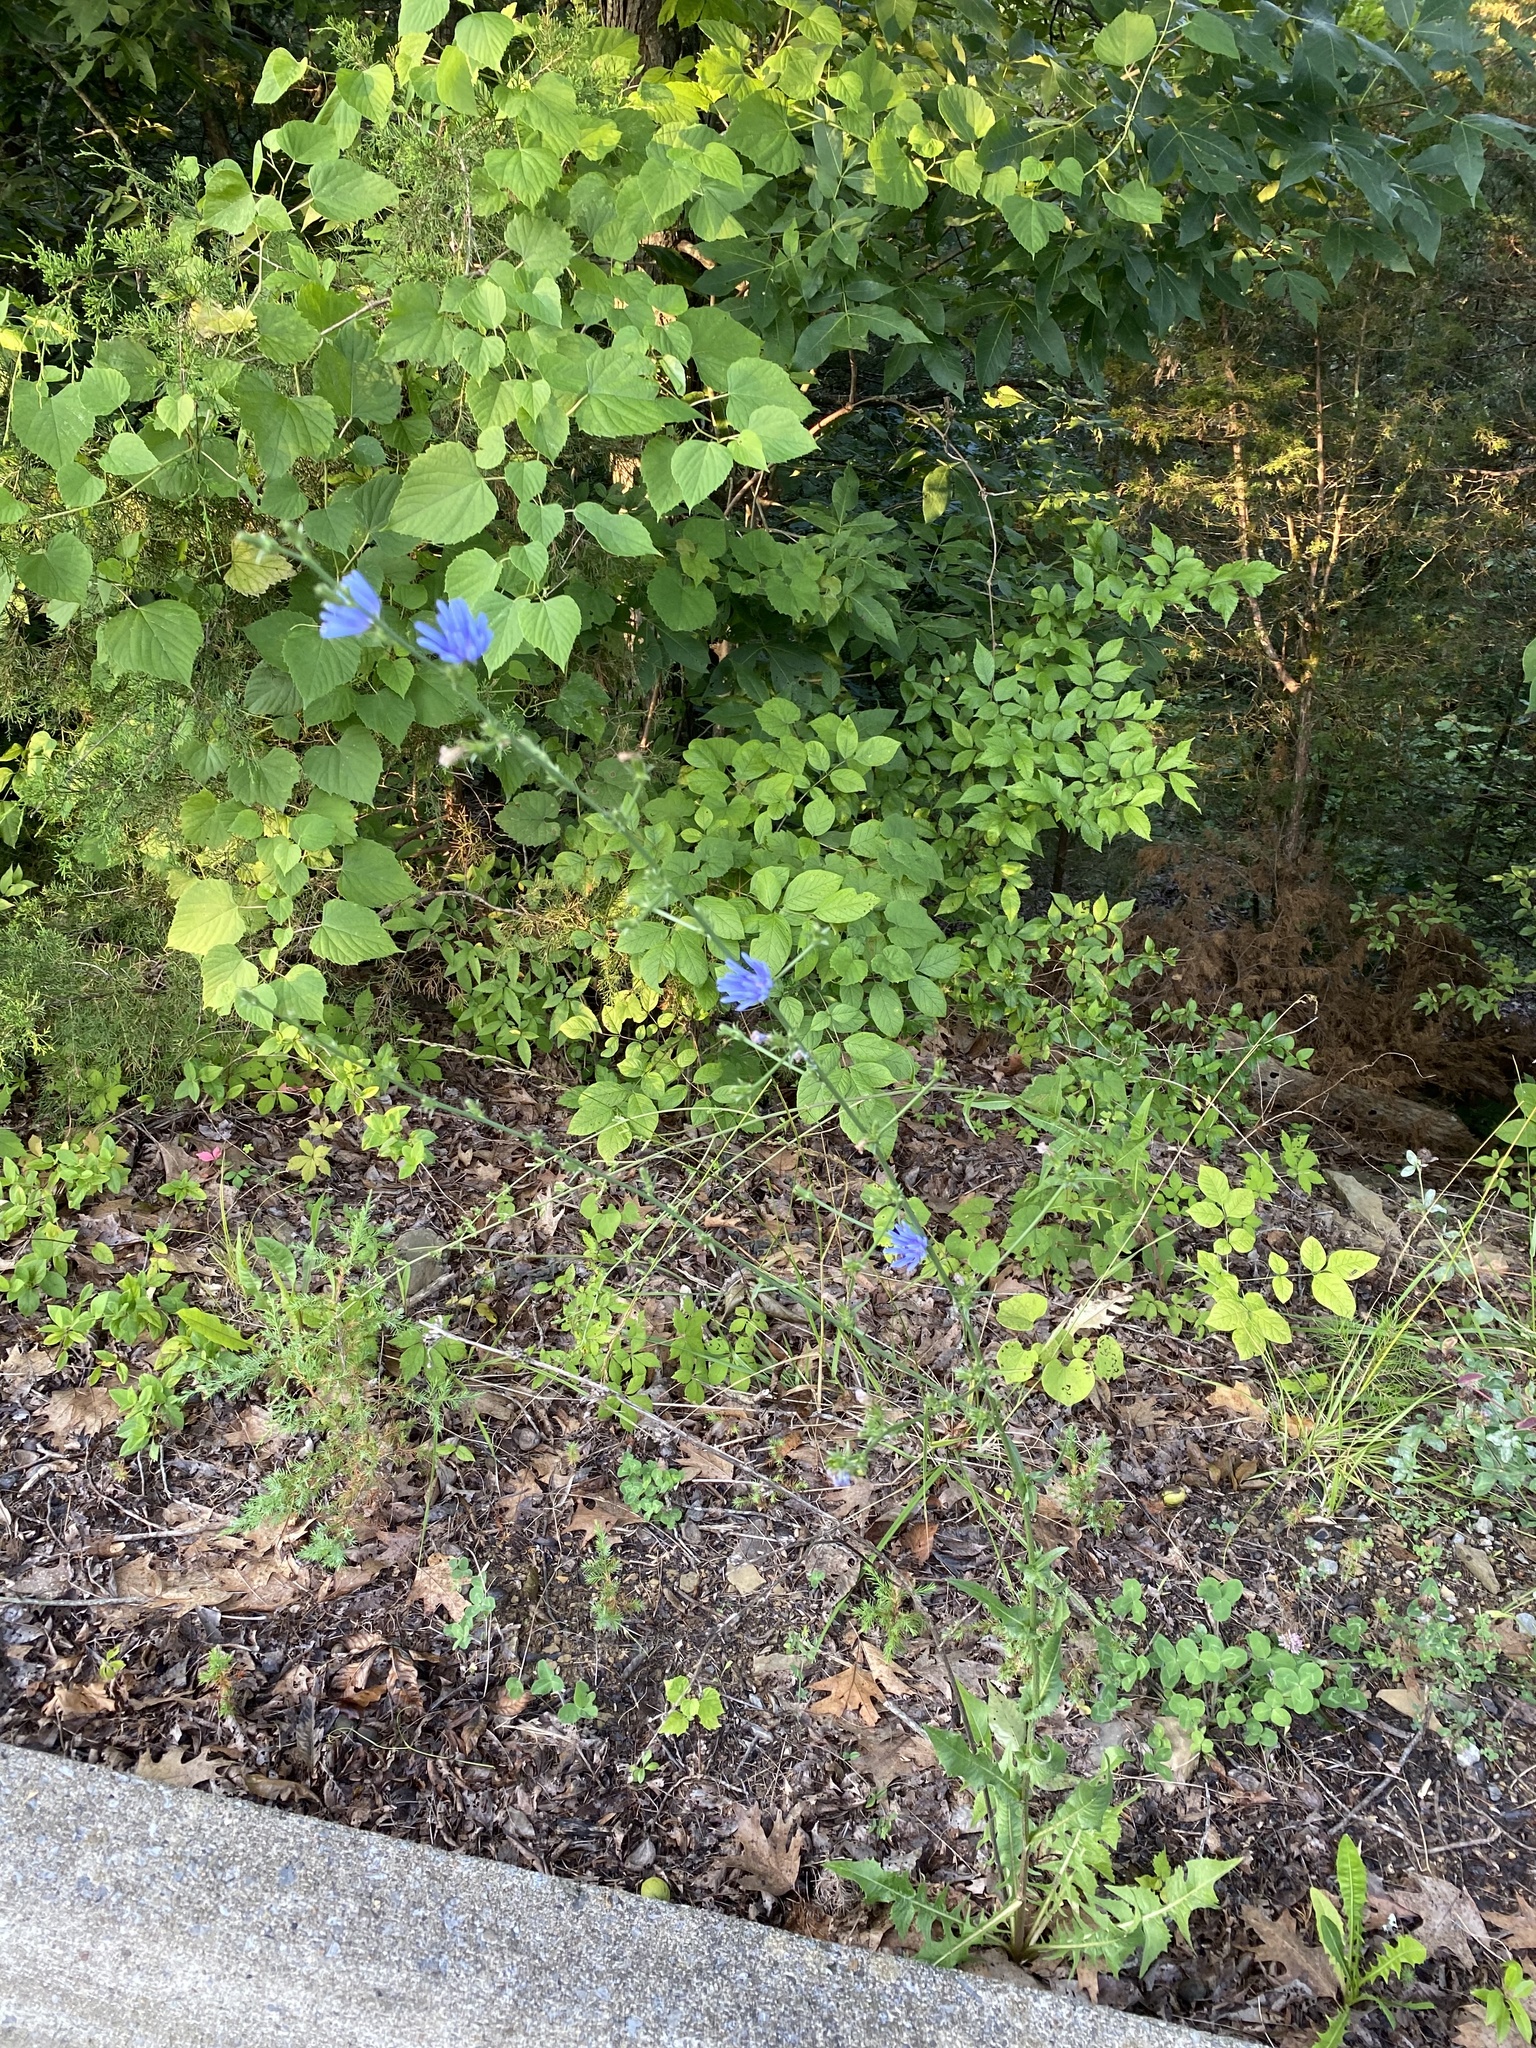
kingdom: Plantae
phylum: Tracheophyta
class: Magnoliopsida
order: Asterales
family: Asteraceae
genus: Cichorium
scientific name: Cichorium intybus
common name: Chicory
